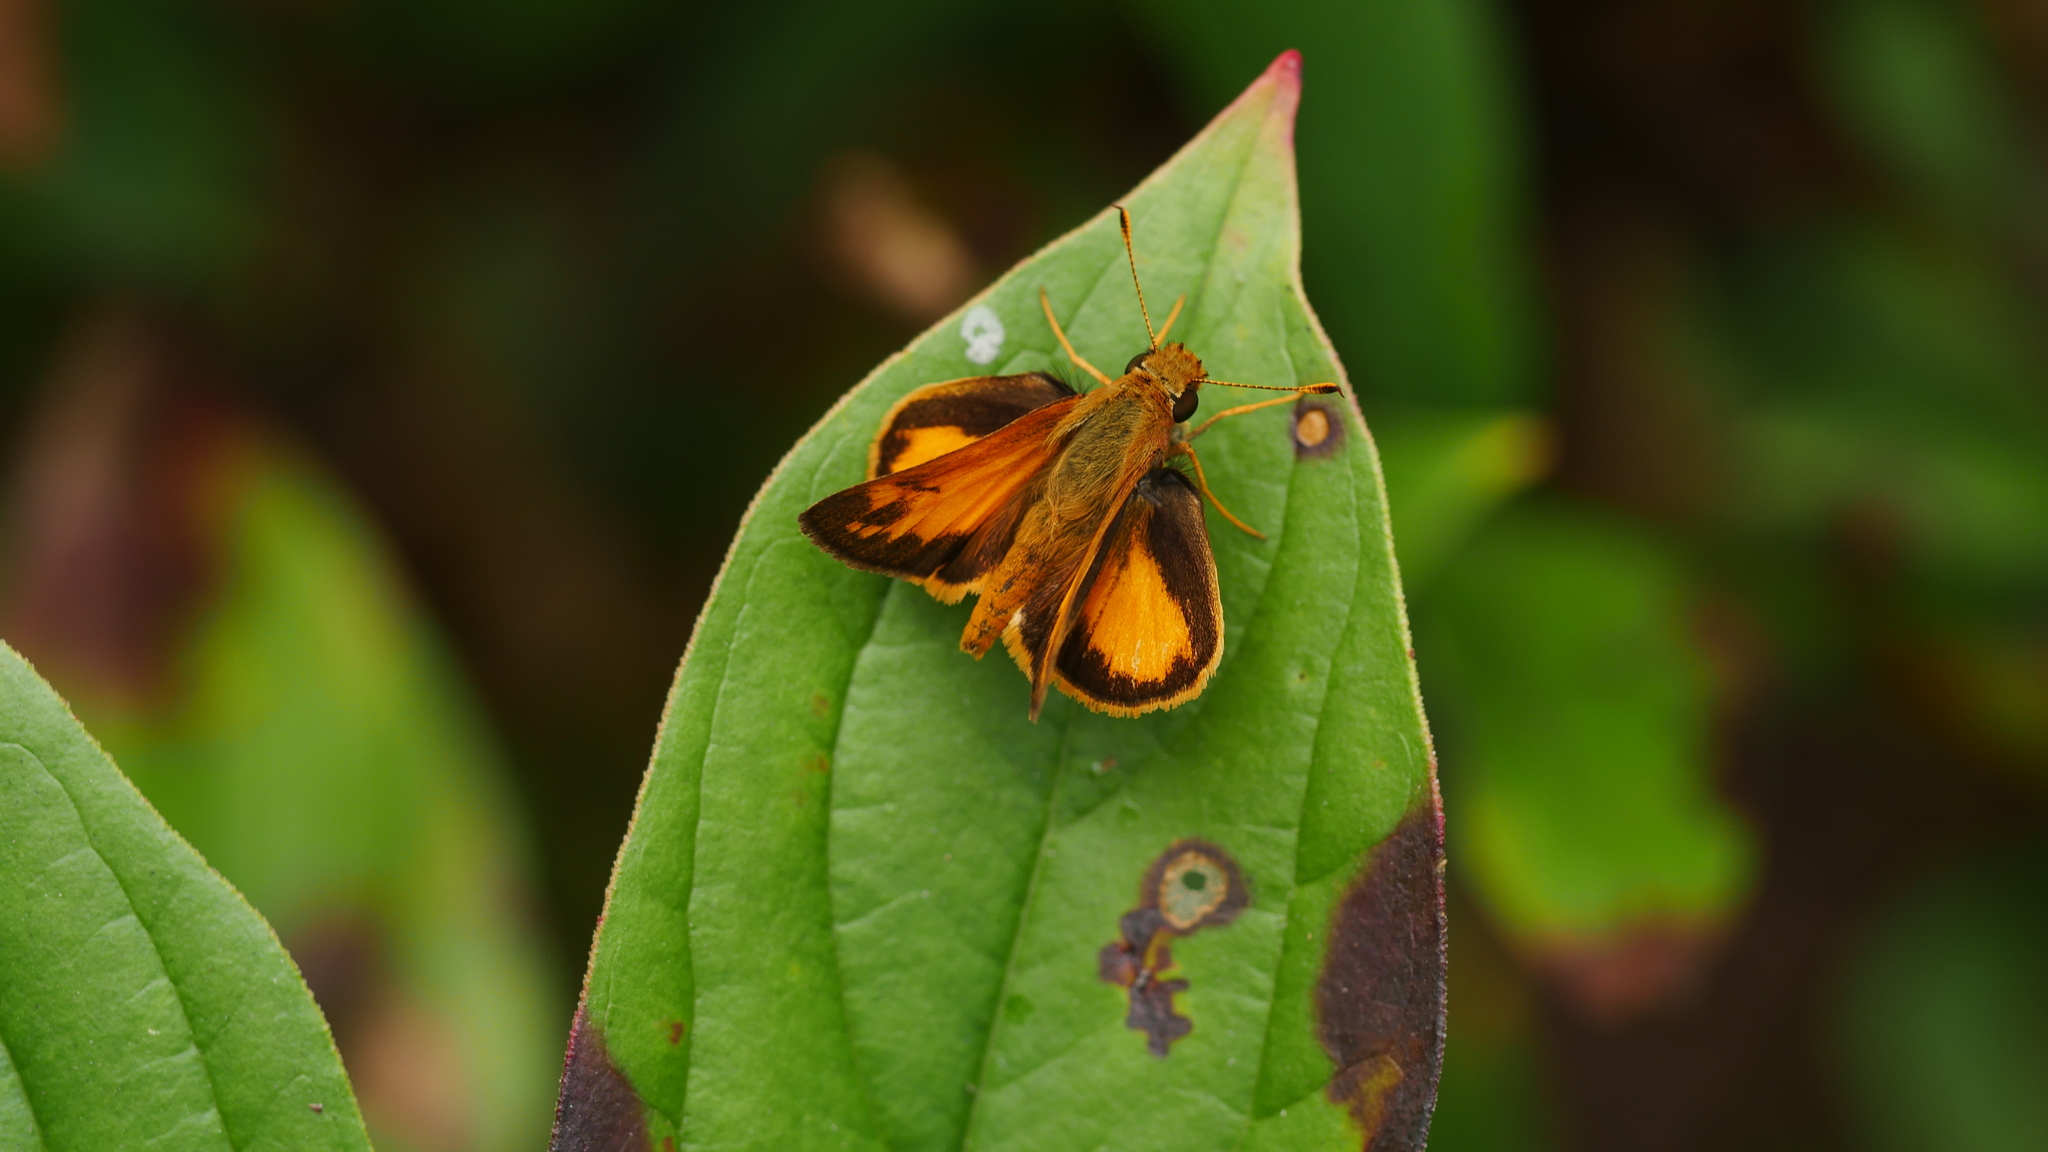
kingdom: Animalia
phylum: Arthropoda
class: Insecta
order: Lepidoptera
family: Hesperiidae
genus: Lon
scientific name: Lon zabulon
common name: Zabulon skipper
